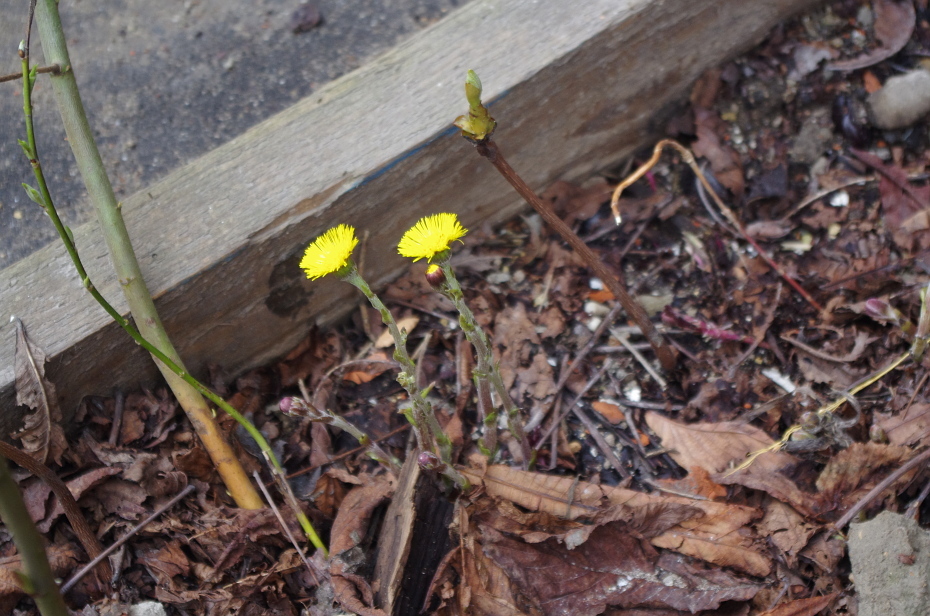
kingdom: Plantae
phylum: Tracheophyta
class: Magnoliopsida
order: Asterales
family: Asteraceae
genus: Tussilago
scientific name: Tussilago farfara
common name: Coltsfoot
